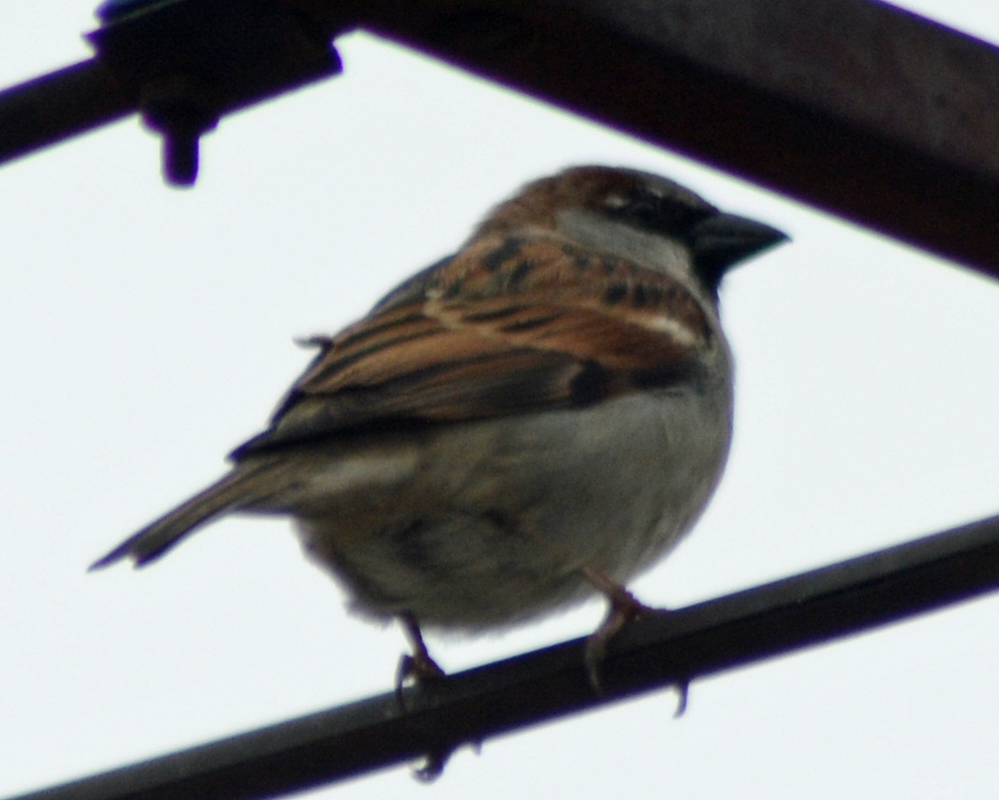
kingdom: Animalia
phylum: Chordata
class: Aves
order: Passeriformes
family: Passeridae
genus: Passer
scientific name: Passer domesticus
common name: House sparrow
